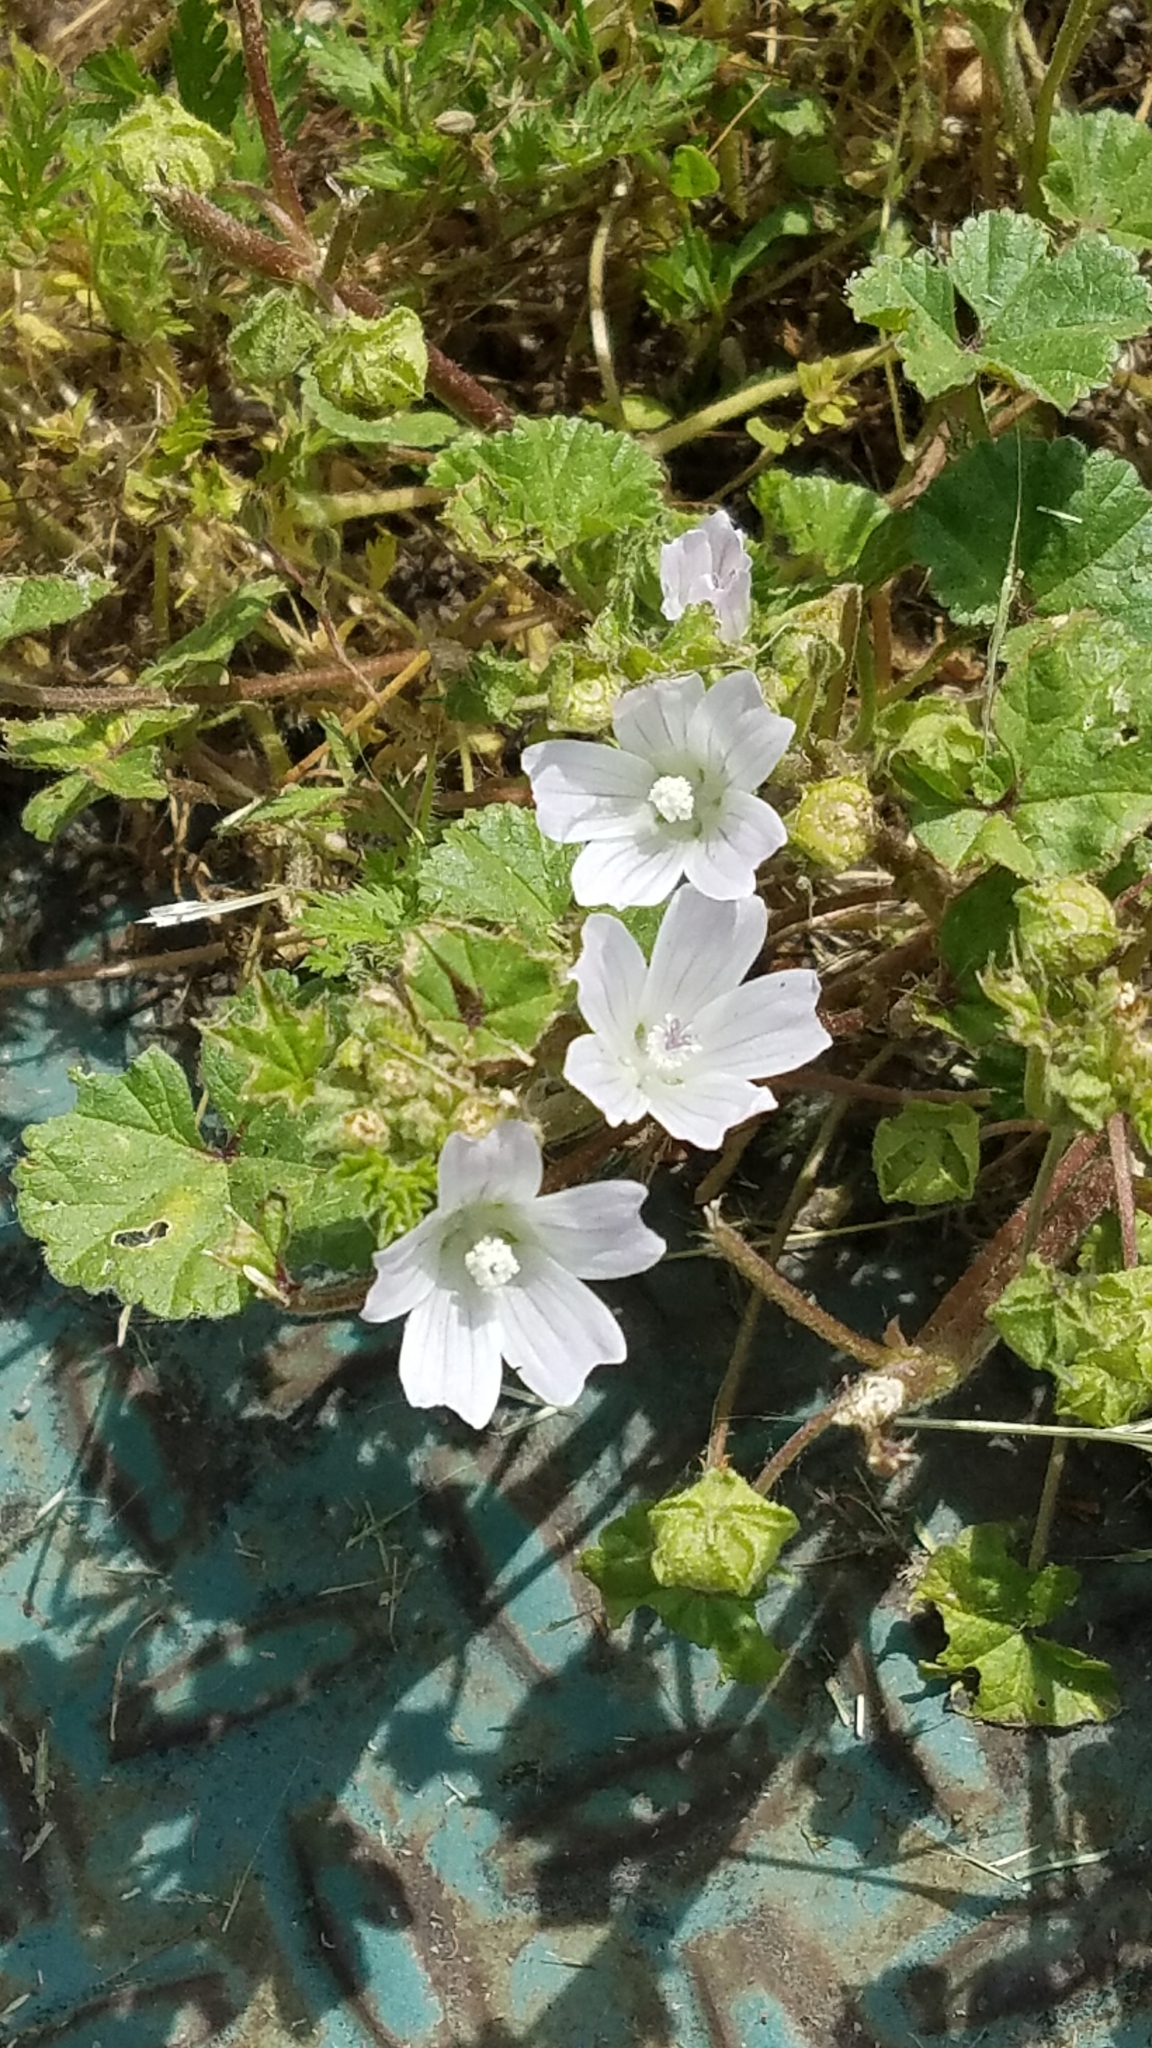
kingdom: Plantae
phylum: Tracheophyta
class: Magnoliopsida
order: Malvales
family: Malvaceae
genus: Malva
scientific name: Malva neglecta
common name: Common mallow
